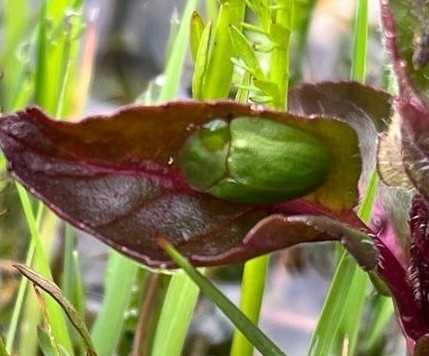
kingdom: Animalia
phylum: Arthropoda
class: Insecta
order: Coleoptera
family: Chrysomelidae
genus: Cassida
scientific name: Cassida viridis
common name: Green tortoise beetle
